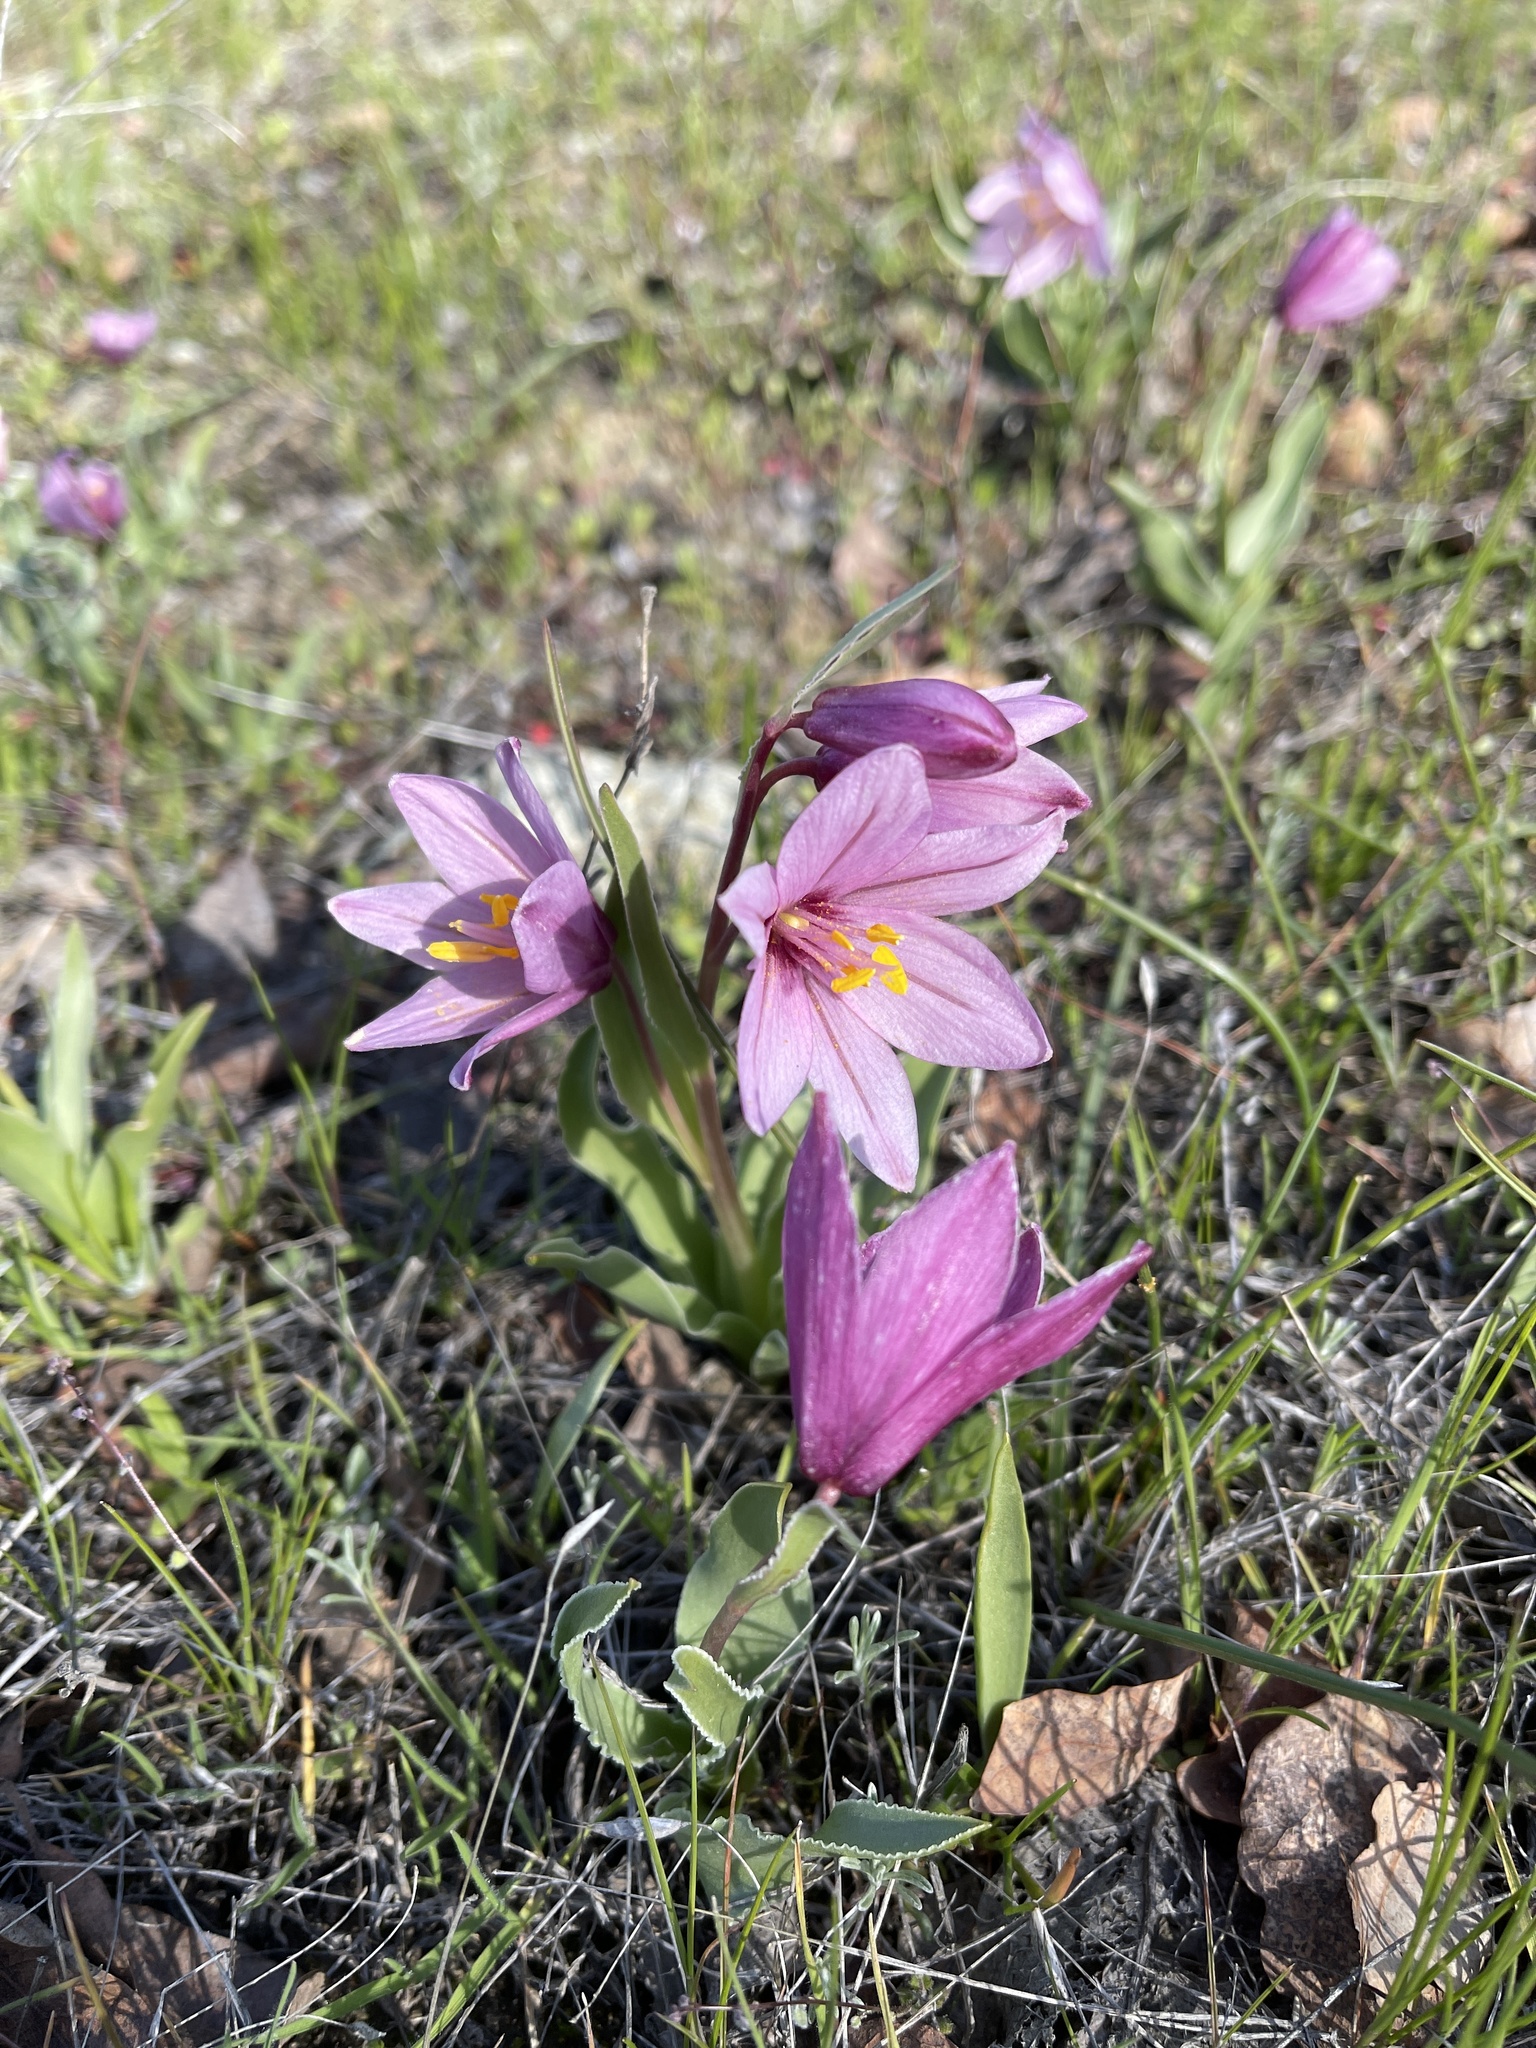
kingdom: Plantae
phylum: Tracheophyta
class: Liliopsida
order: Liliales
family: Liliaceae
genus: Fritillaria
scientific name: Fritillaria pluriflora
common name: Adobe-lily
